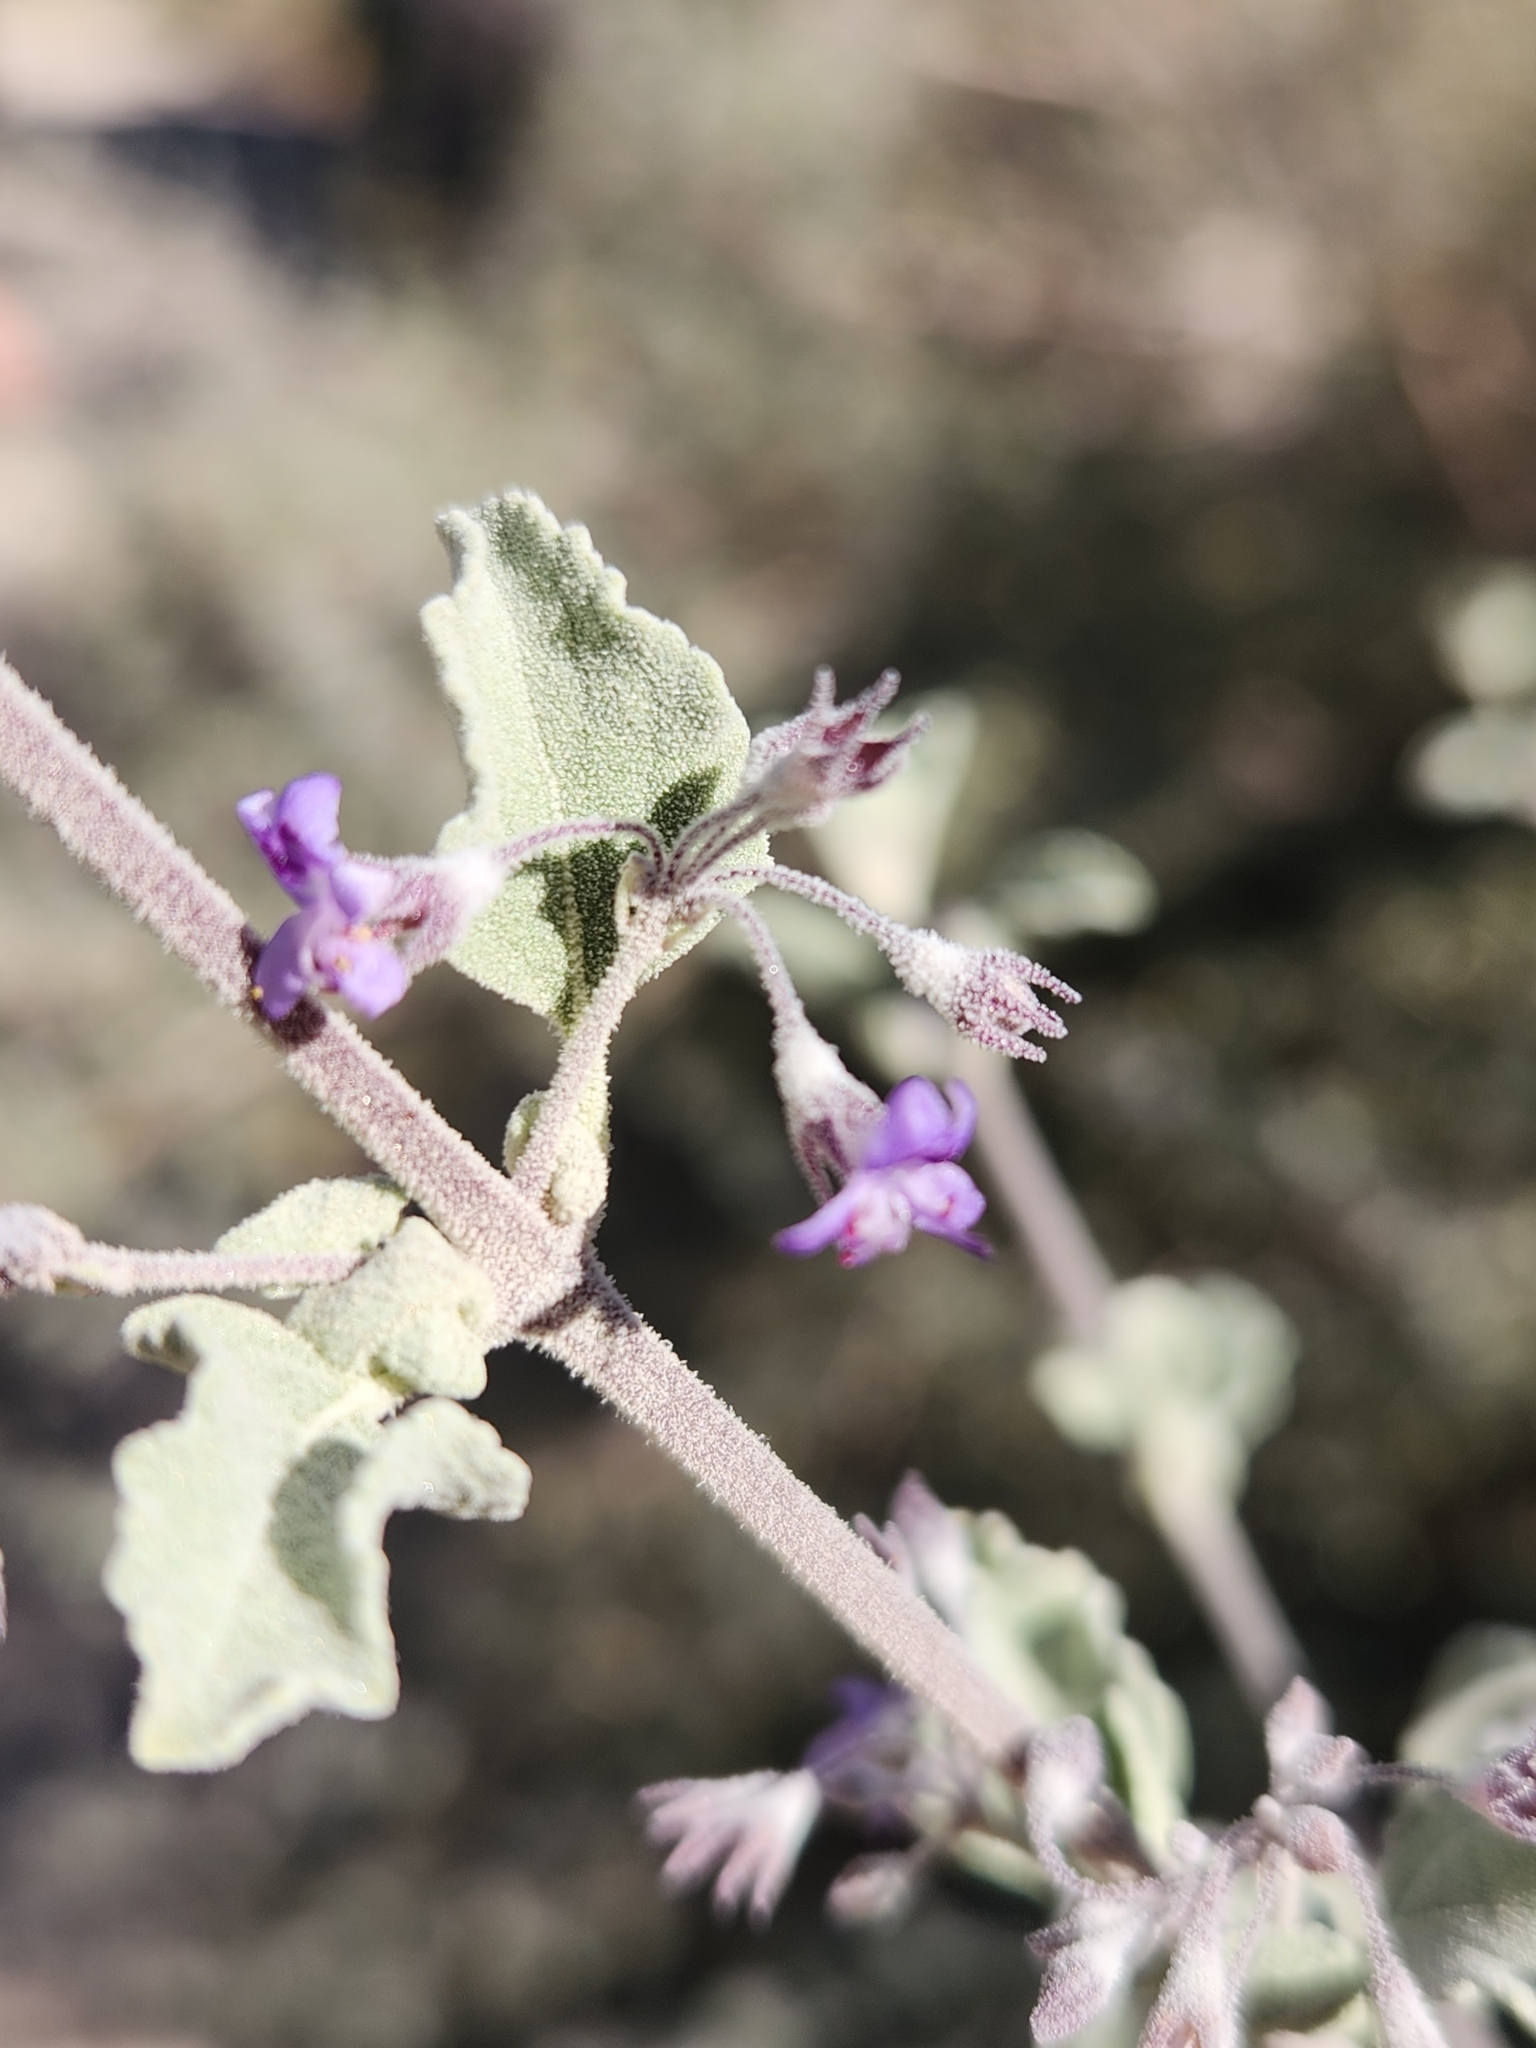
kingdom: Plantae
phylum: Tracheophyta
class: Magnoliopsida
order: Lamiales
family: Lamiaceae
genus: Condea
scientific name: Condea emoryi
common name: Chia
